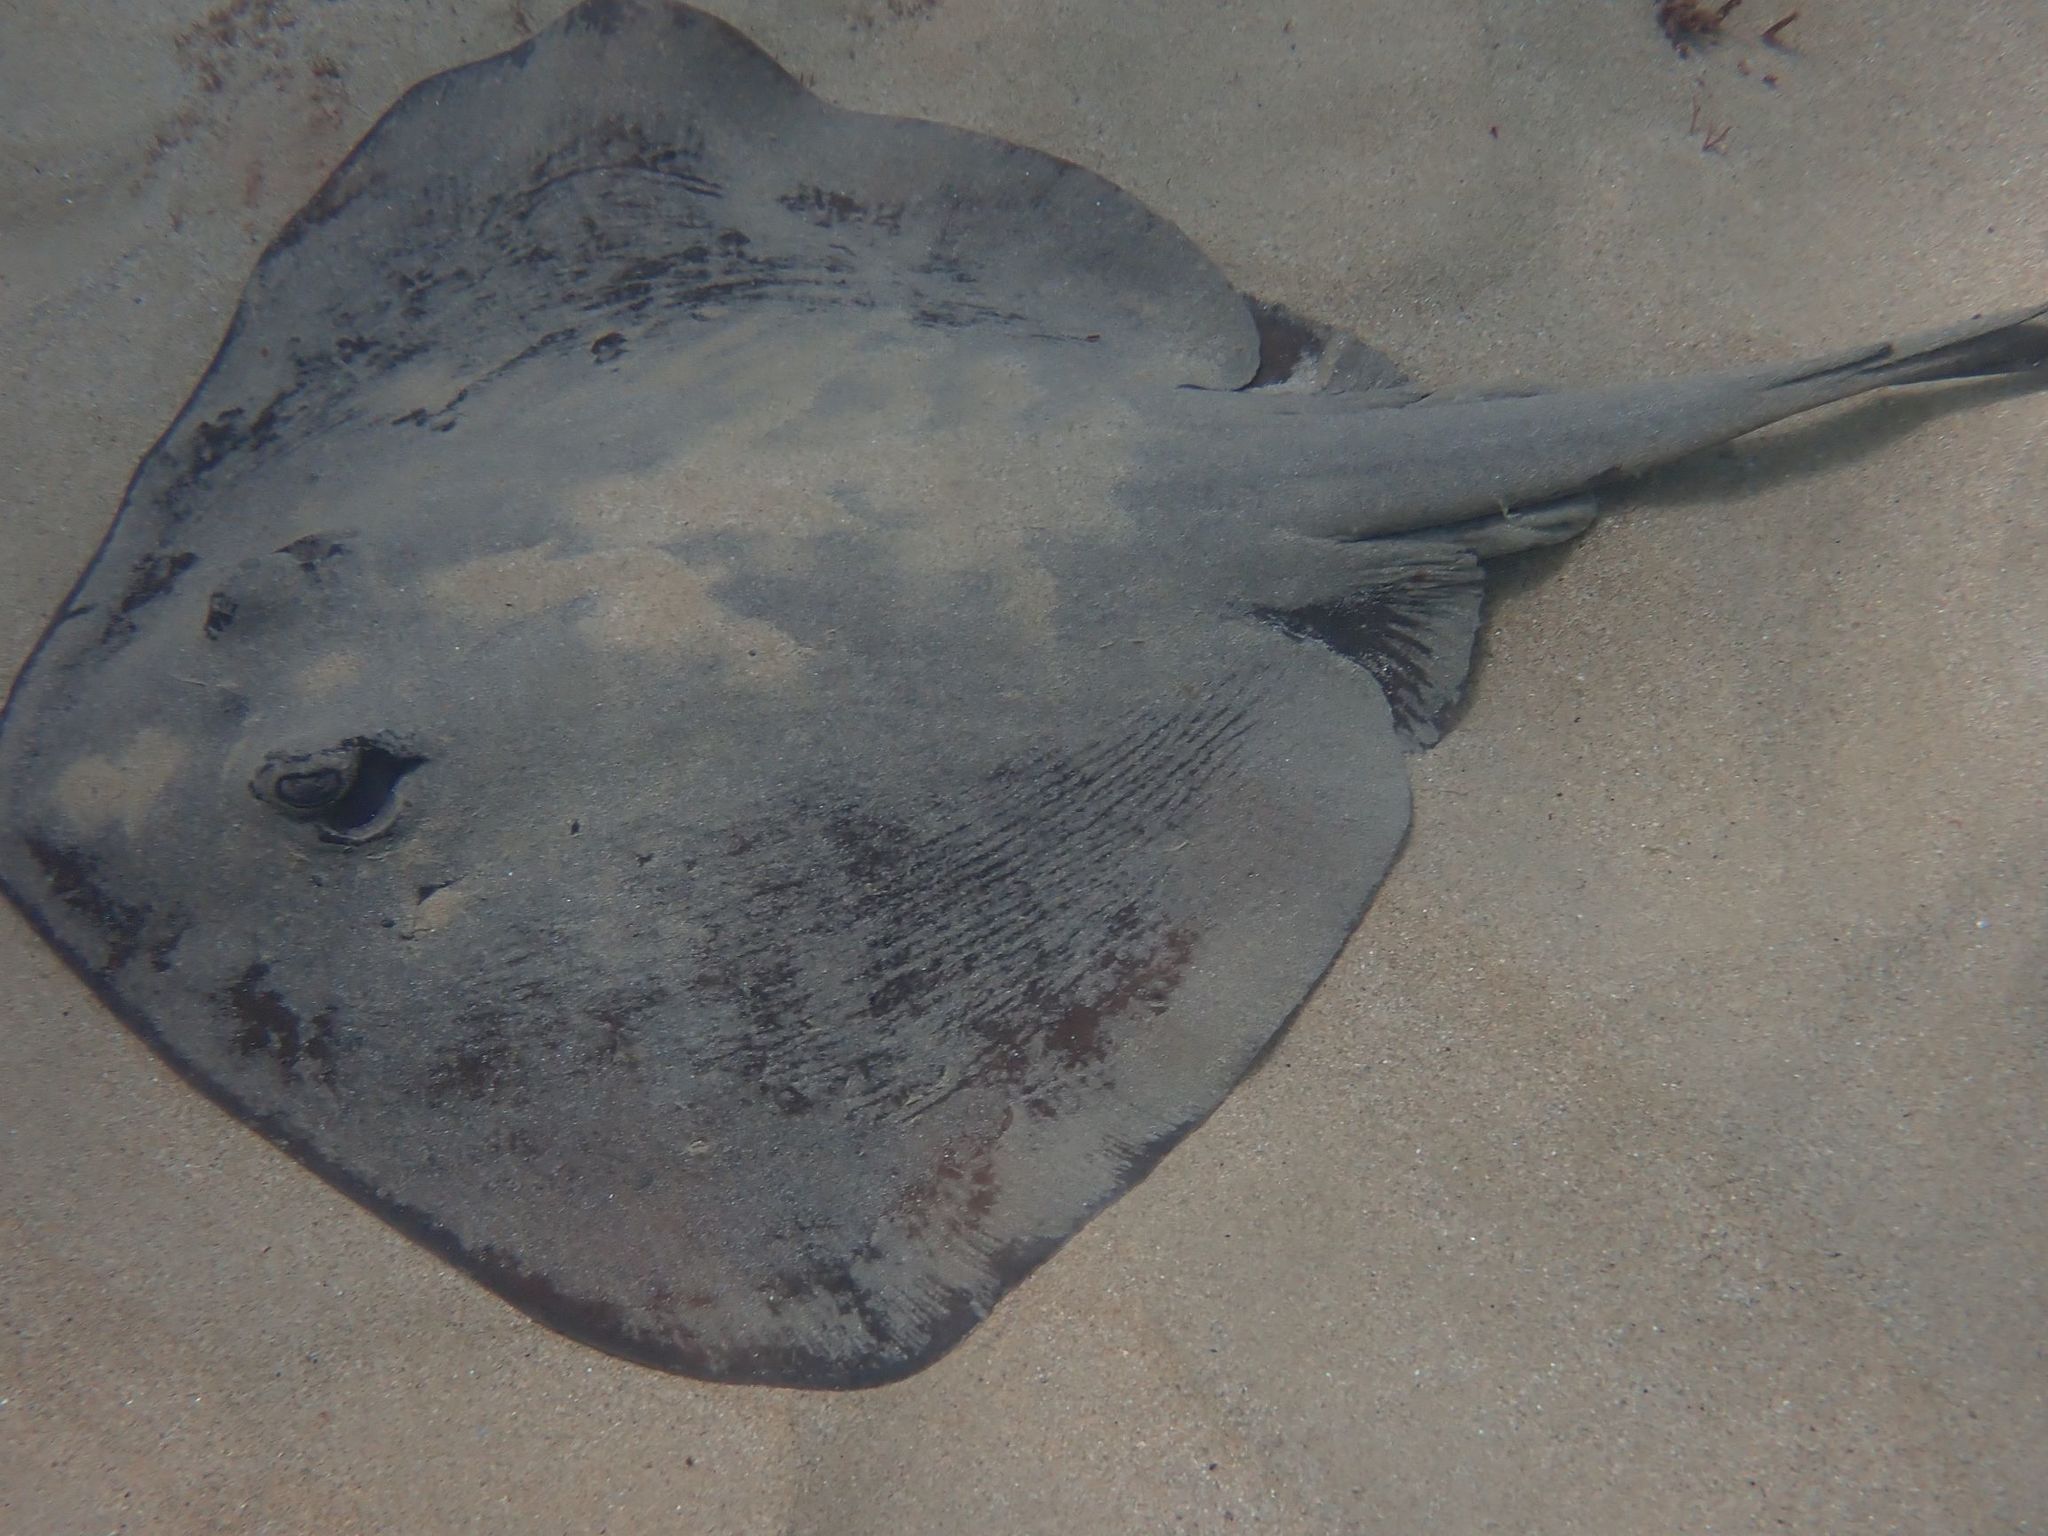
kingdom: Animalia
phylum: Chordata
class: Elasmobranchii
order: Myliobatiformes
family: Urolophidae
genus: Trygonoptera
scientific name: Trygonoptera imitata
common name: Eastern shovelnose stingaree
